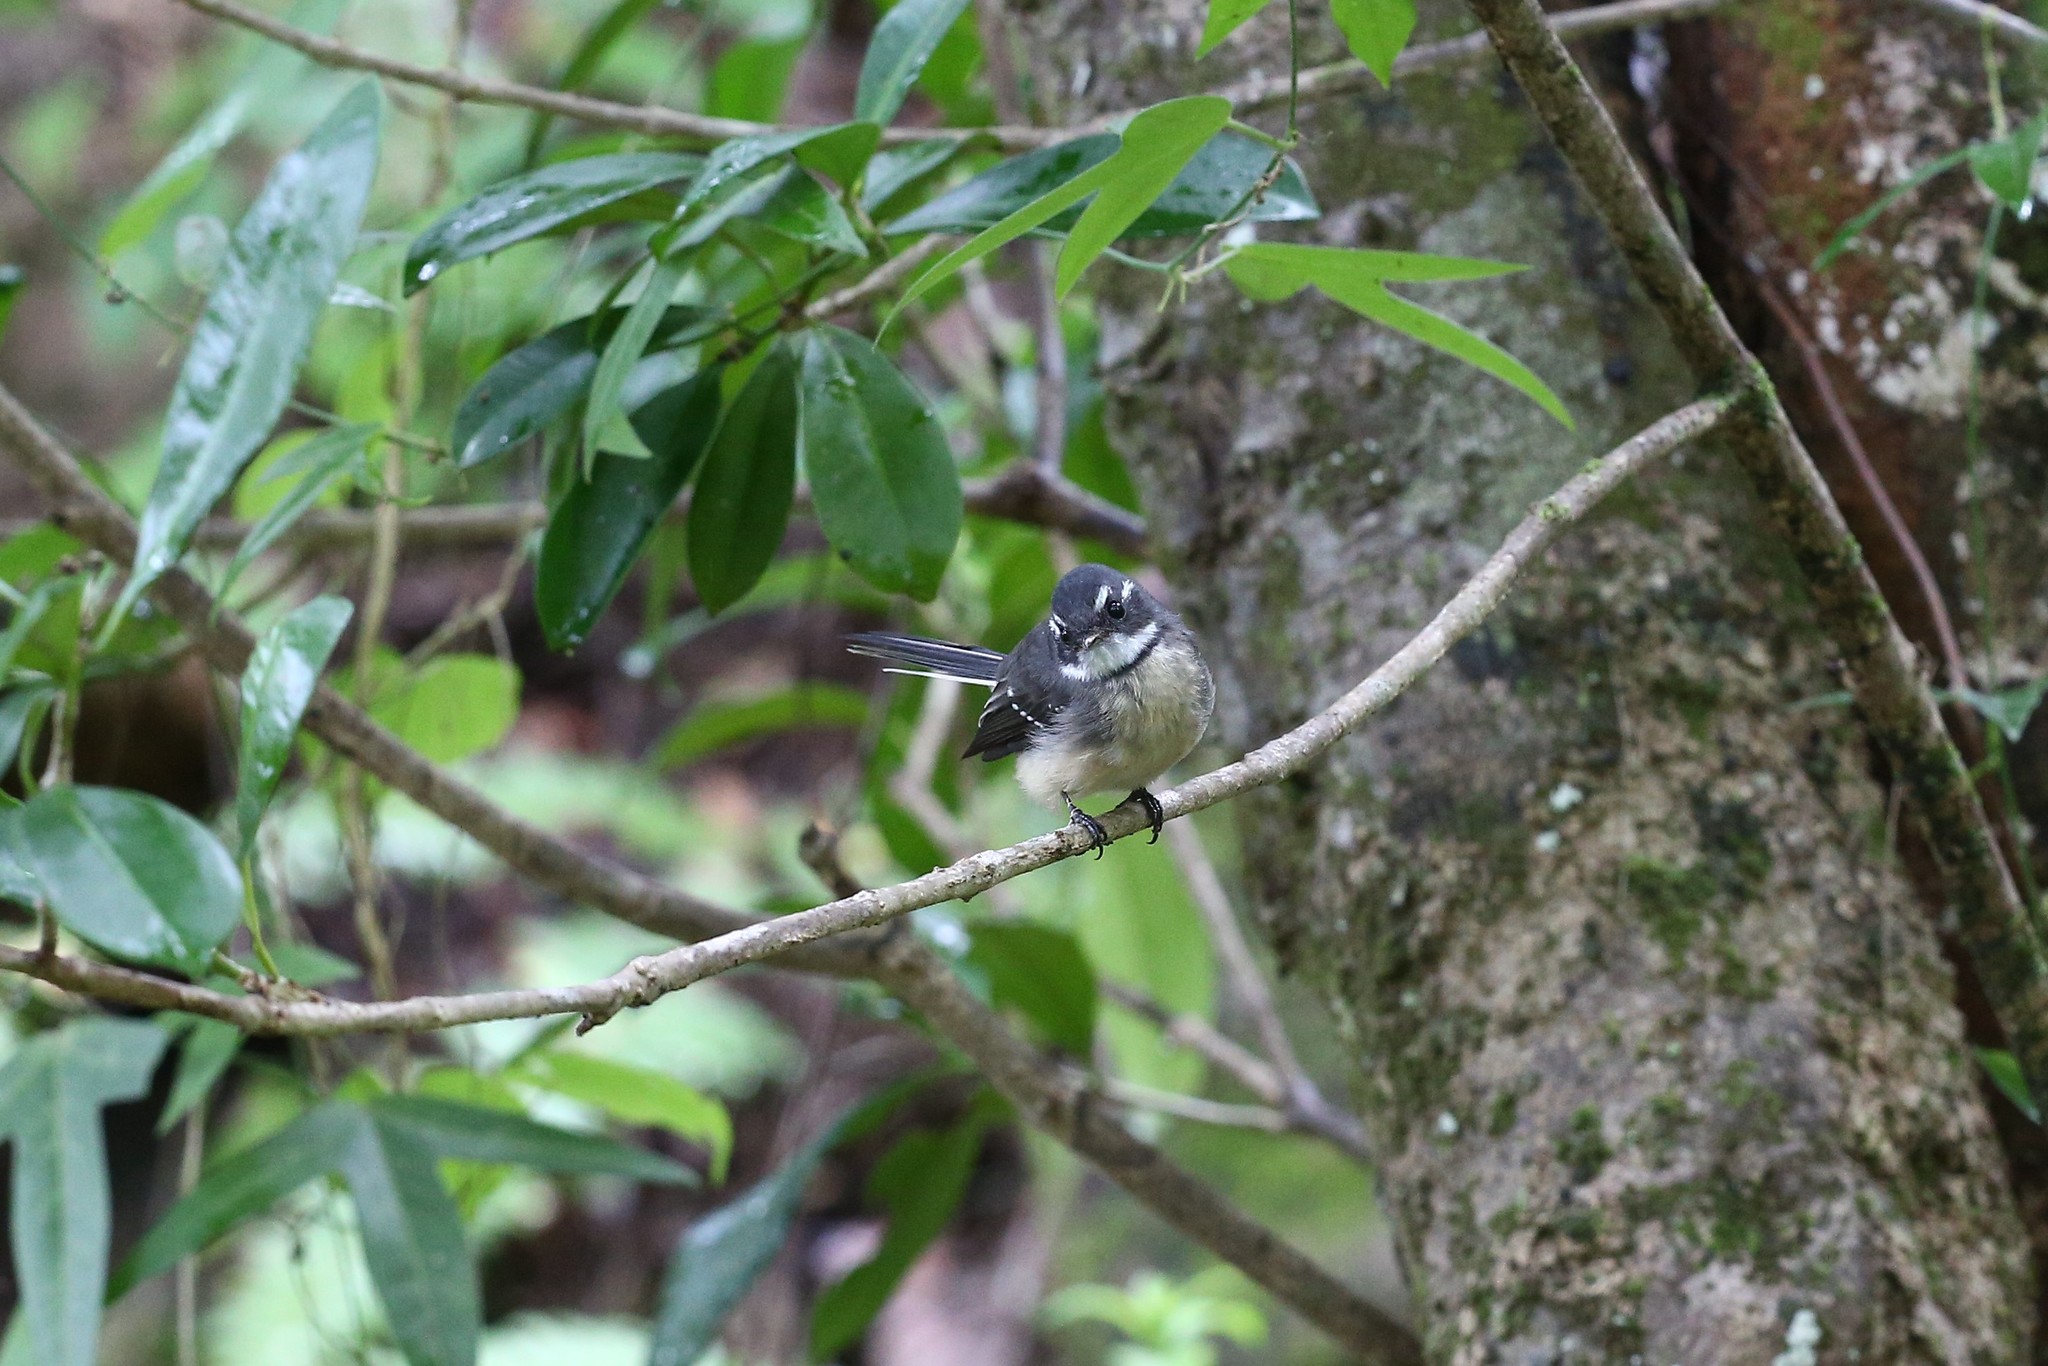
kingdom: Animalia
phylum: Chordata
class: Aves
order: Passeriformes
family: Rhipiduridae
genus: Rhipidura
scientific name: Rhipidura albiscapa
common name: Grey fantail
